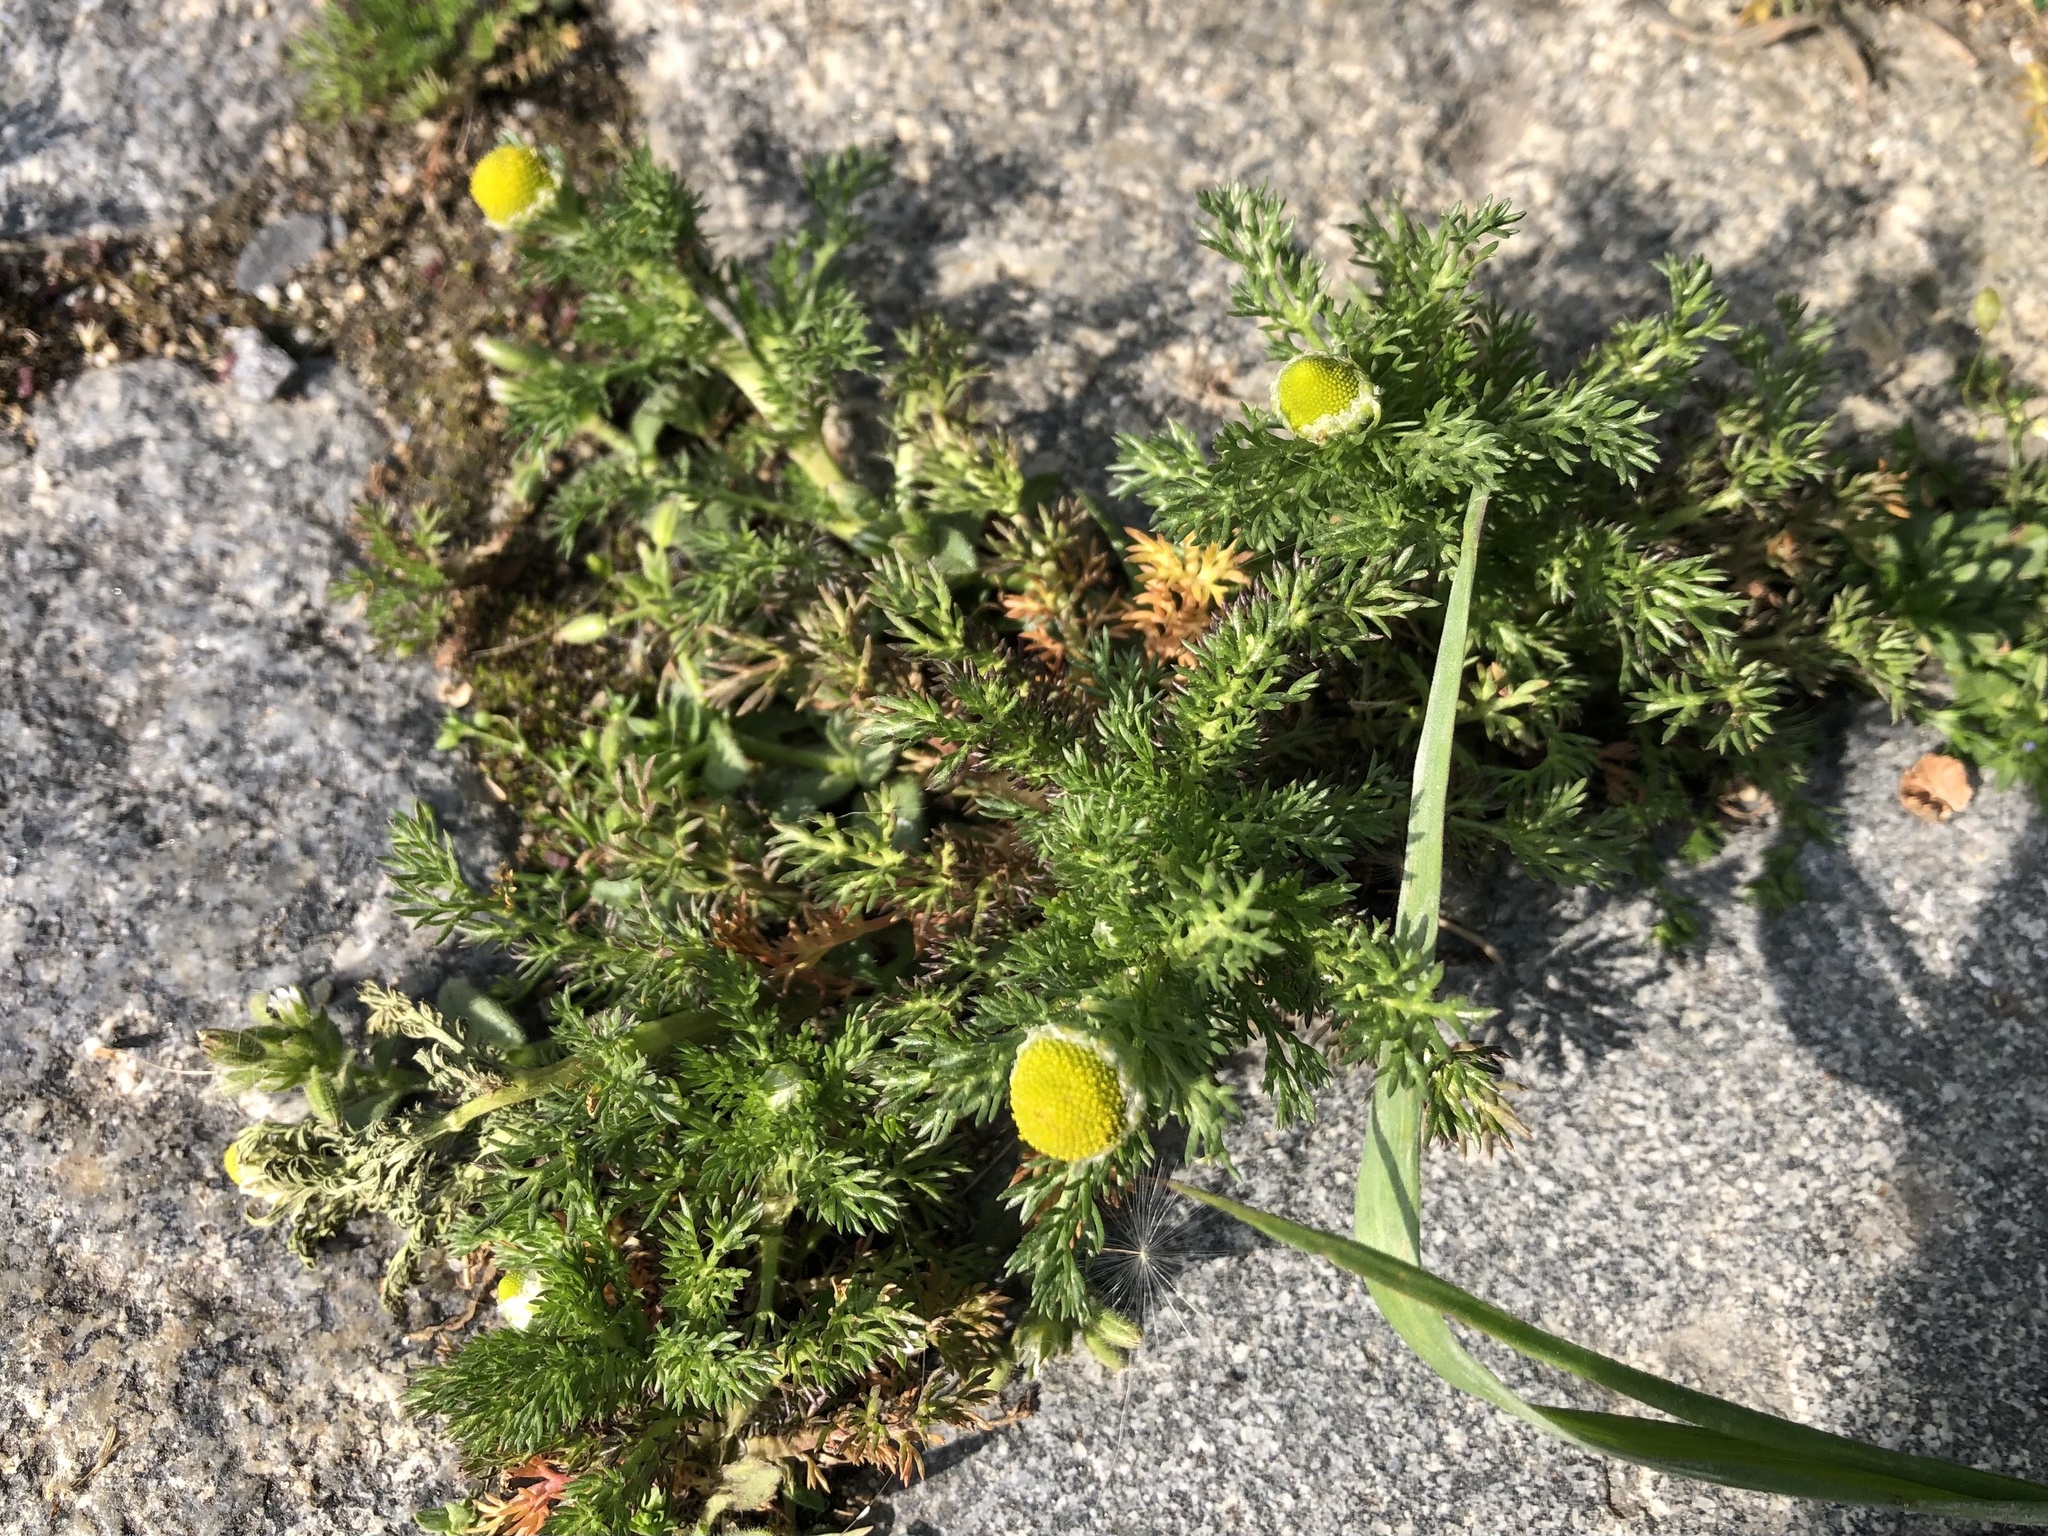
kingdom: Plantae
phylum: Tracheophyta
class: Magnoliopsida
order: Asterales
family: Asteraceae
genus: Matricaria
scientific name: Matricaria discoidea
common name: Disc mayweed
